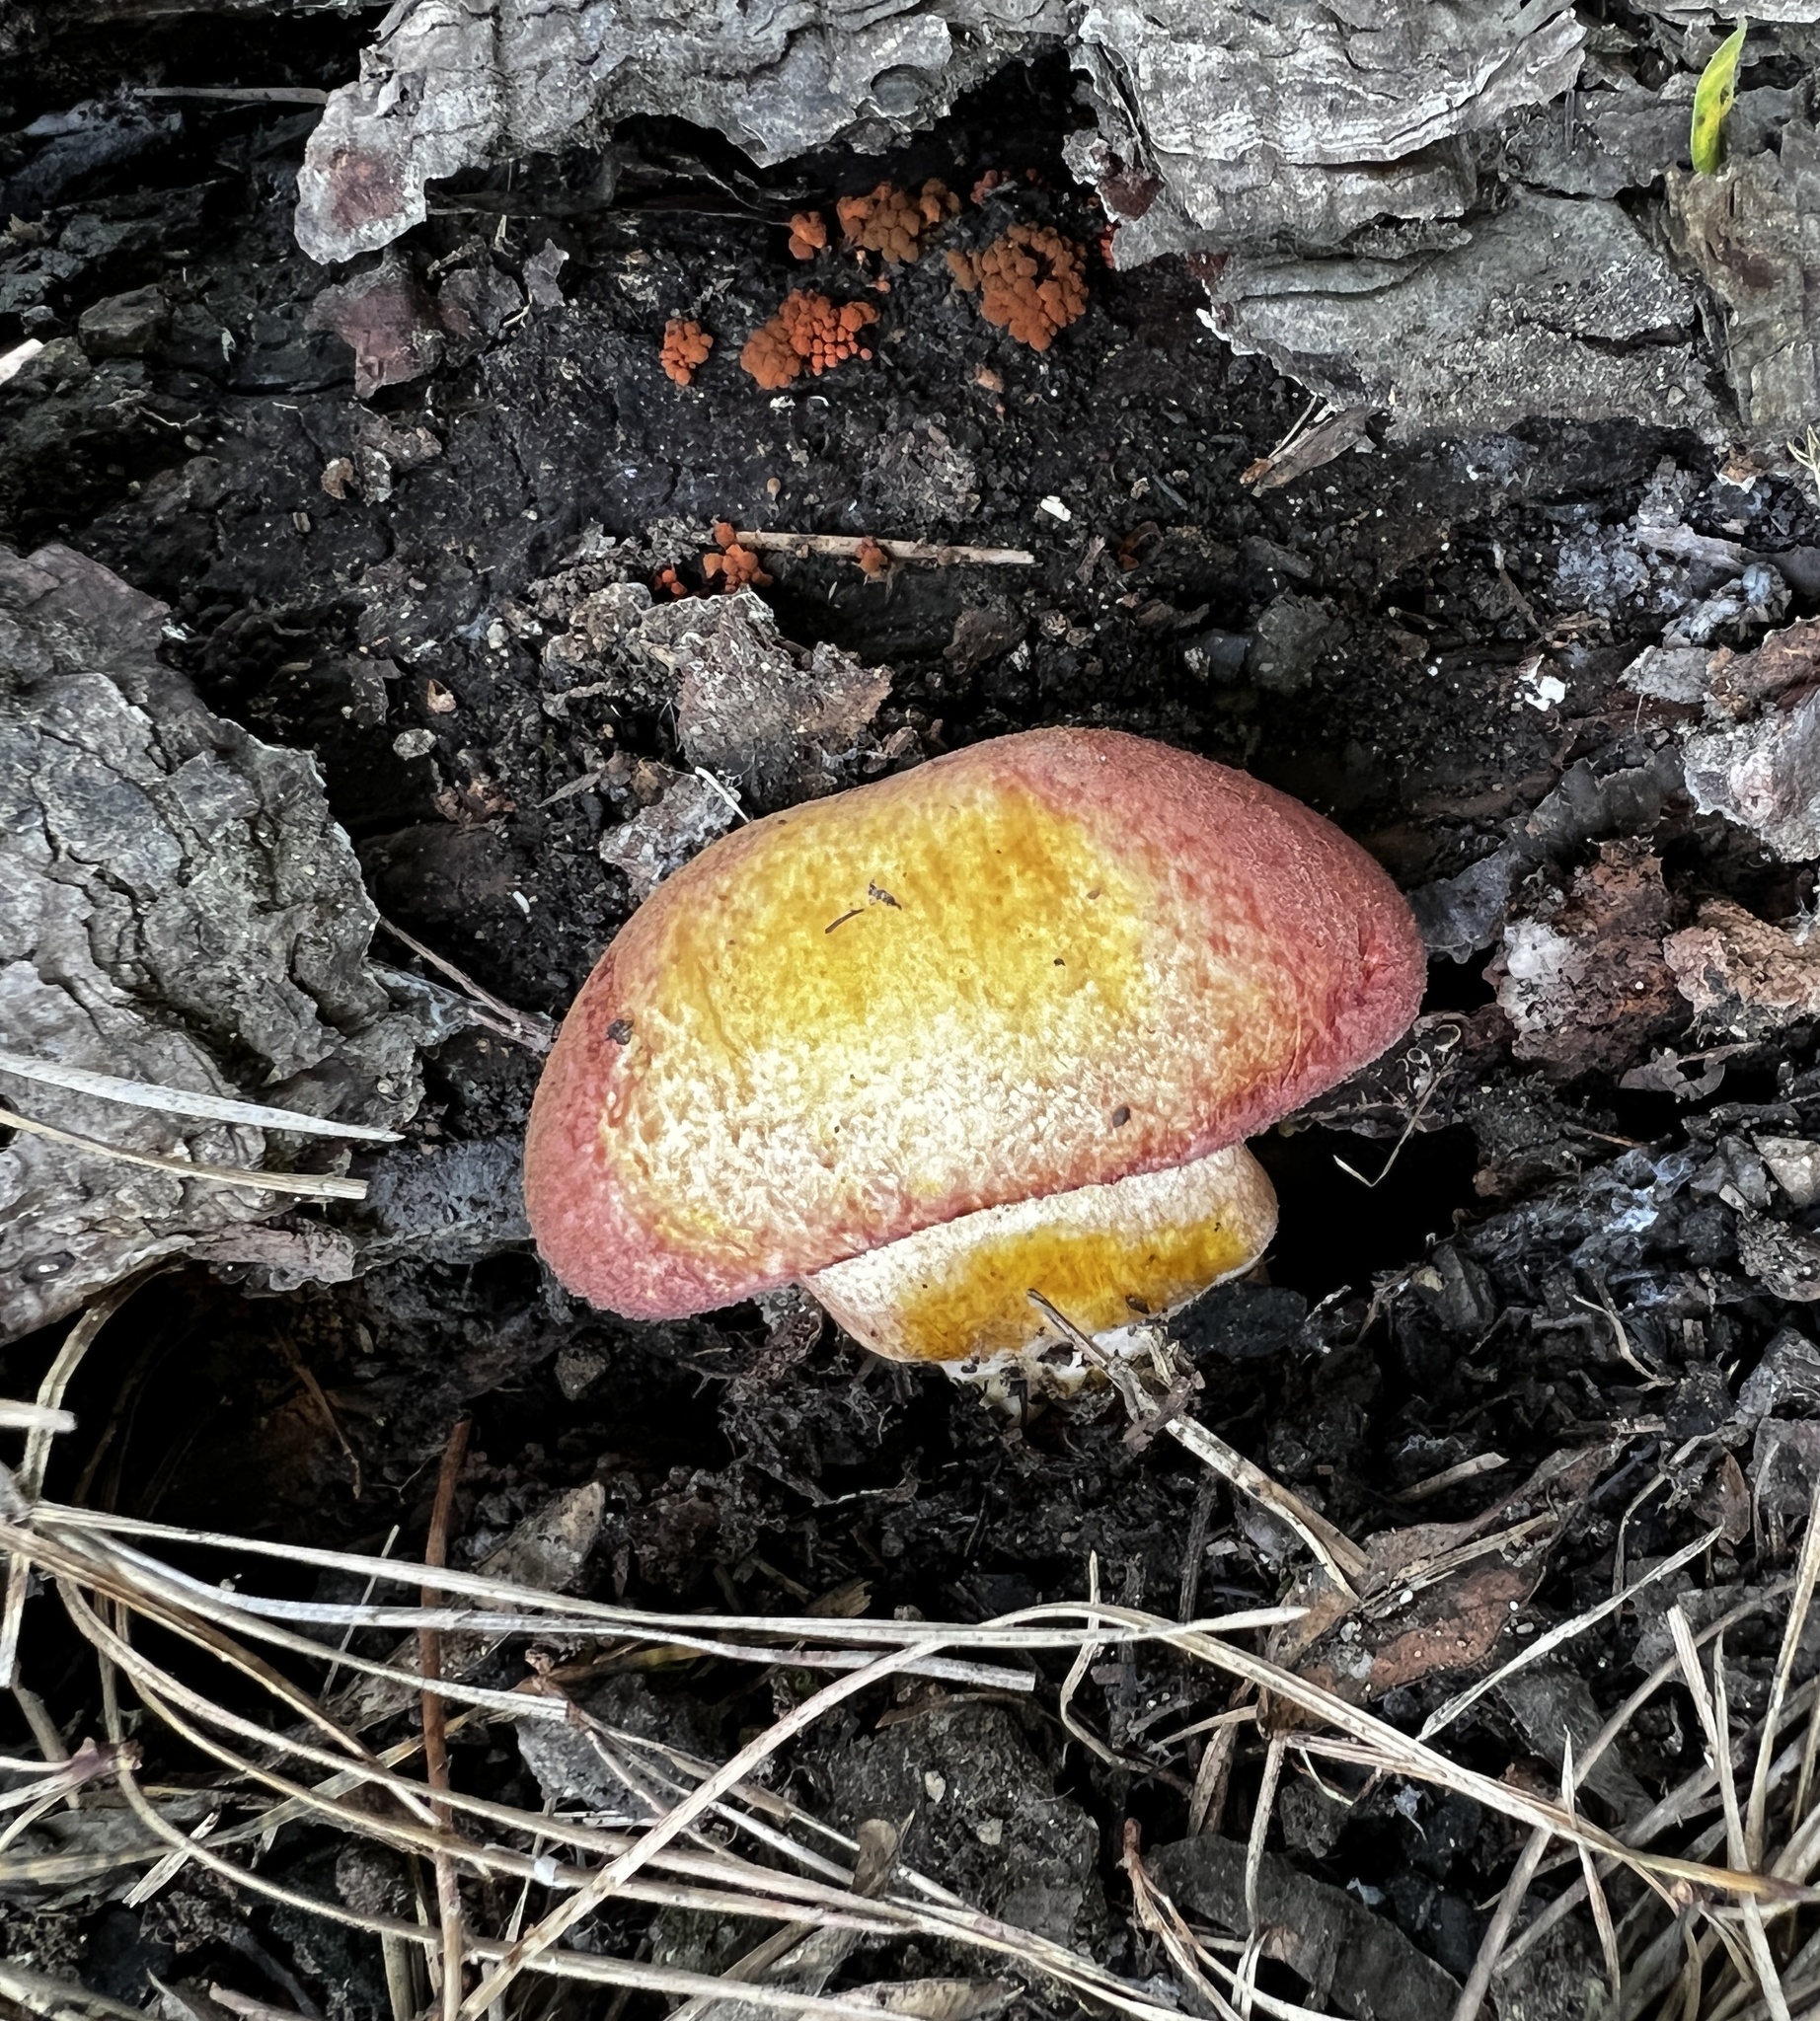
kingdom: Fungi
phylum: Basidiomycota
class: Agaricomycetes
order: Agaricales
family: Tricholomataceae
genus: Tricholomopsis
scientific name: Tricholomopsis rutilans
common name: Plums and custard
